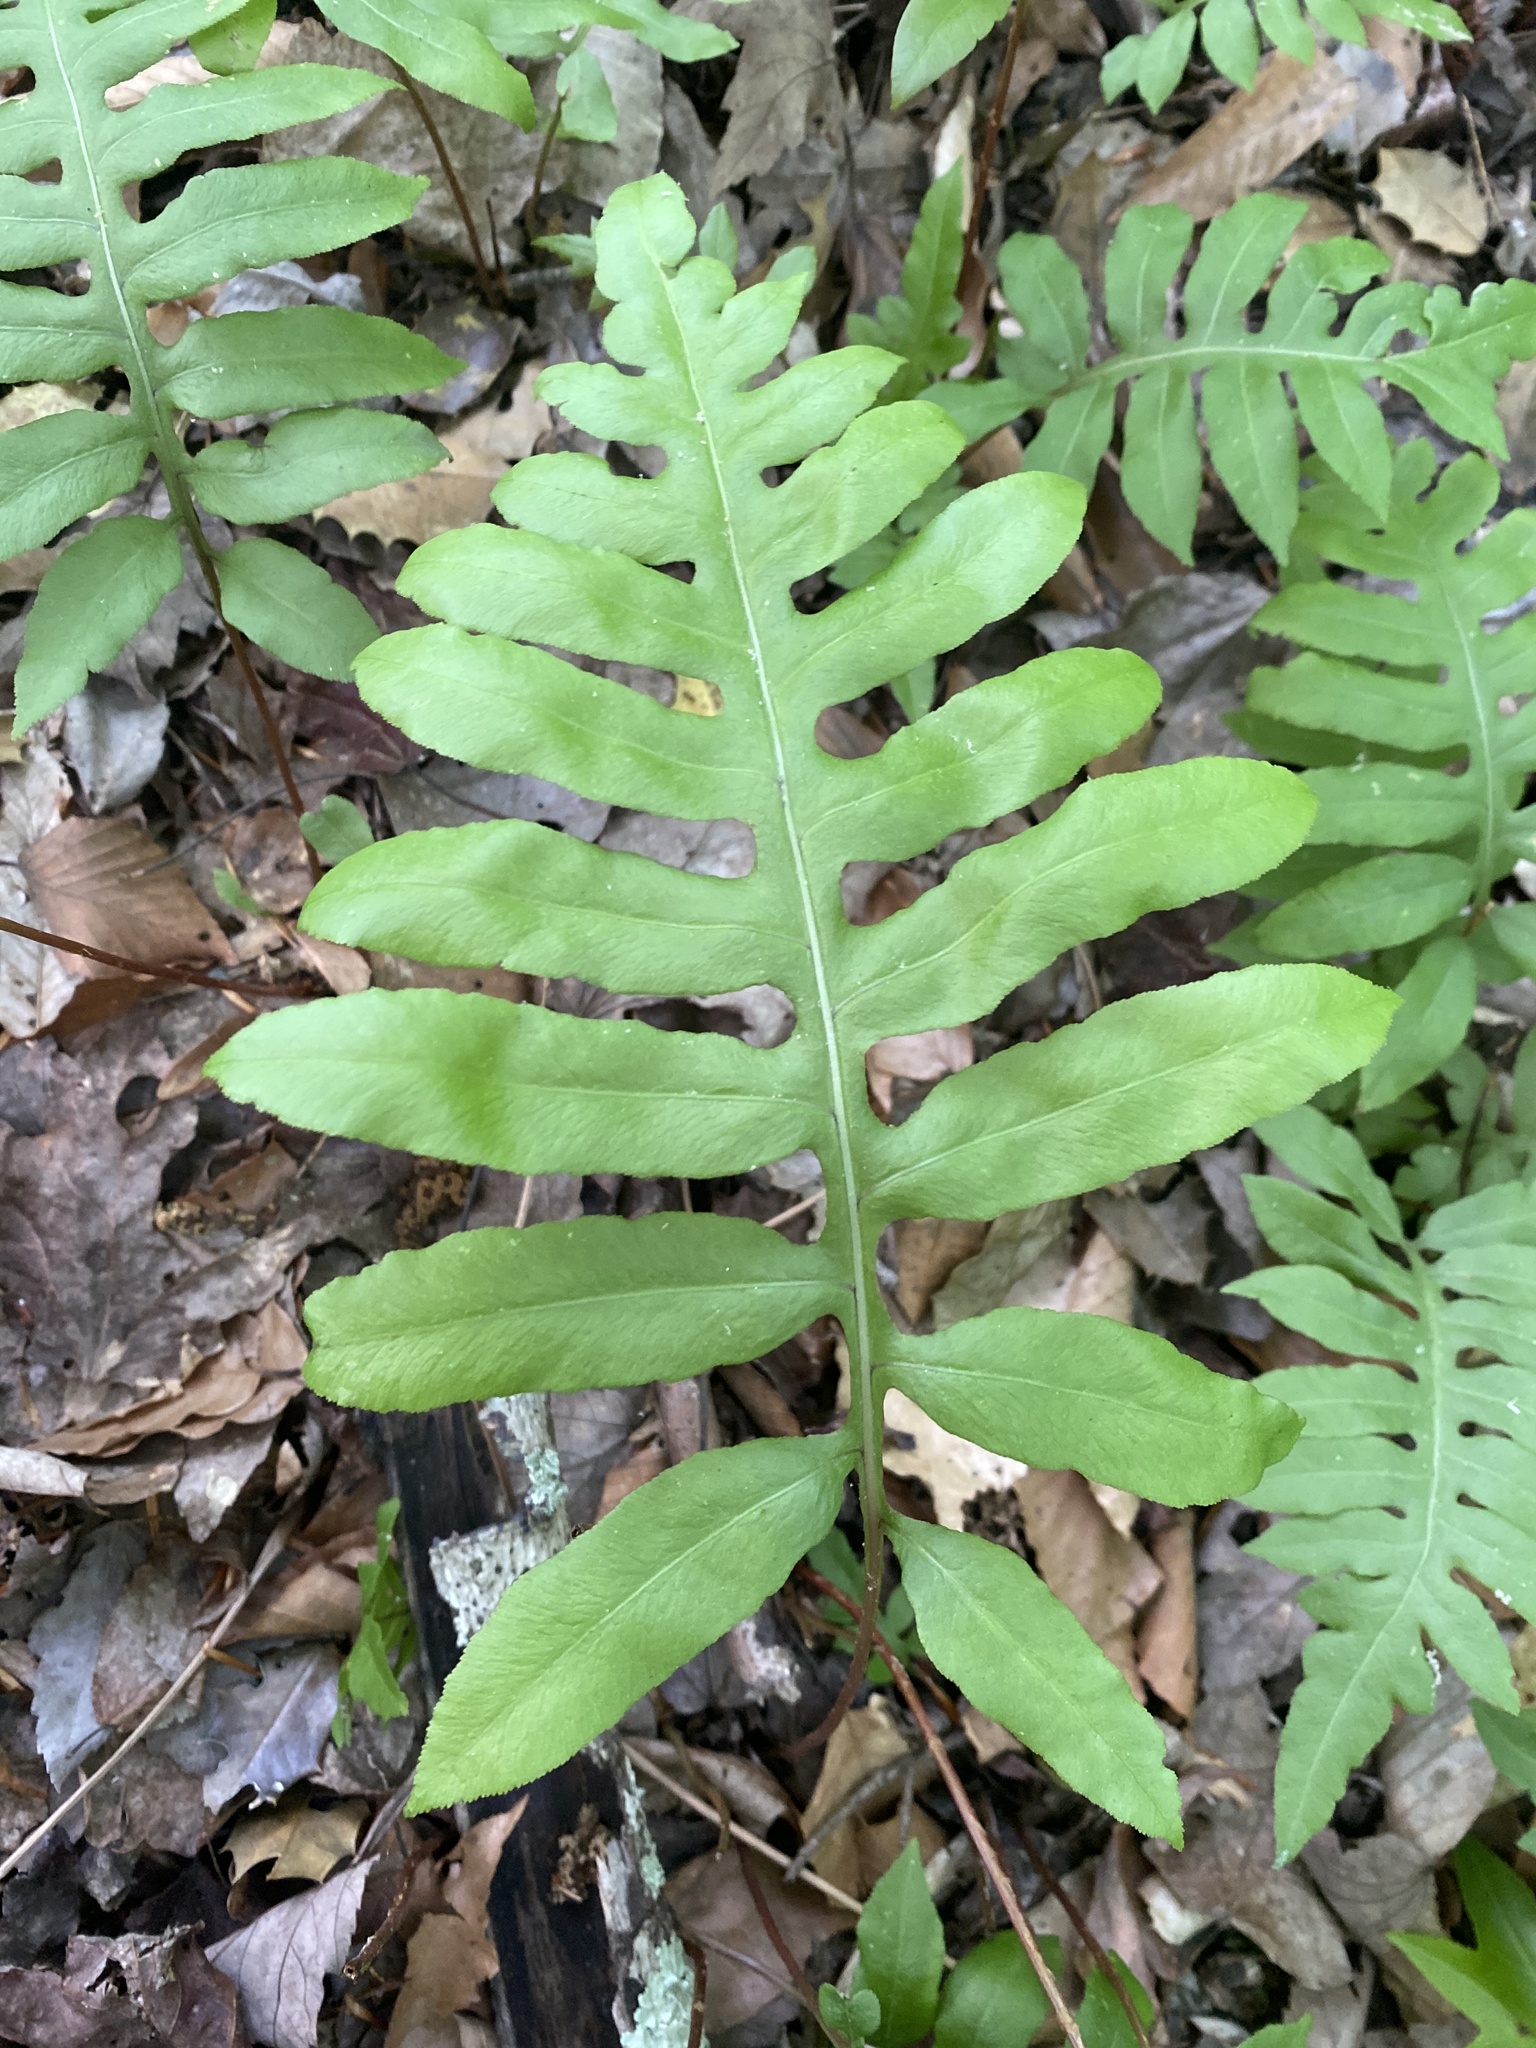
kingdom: Plantae
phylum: Tracheophyta
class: Polypodiopsida
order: Polypodiales
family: Blechnaceae
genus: Lorinseria
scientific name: Lorinseria areolata
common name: Dwarf chain fern
